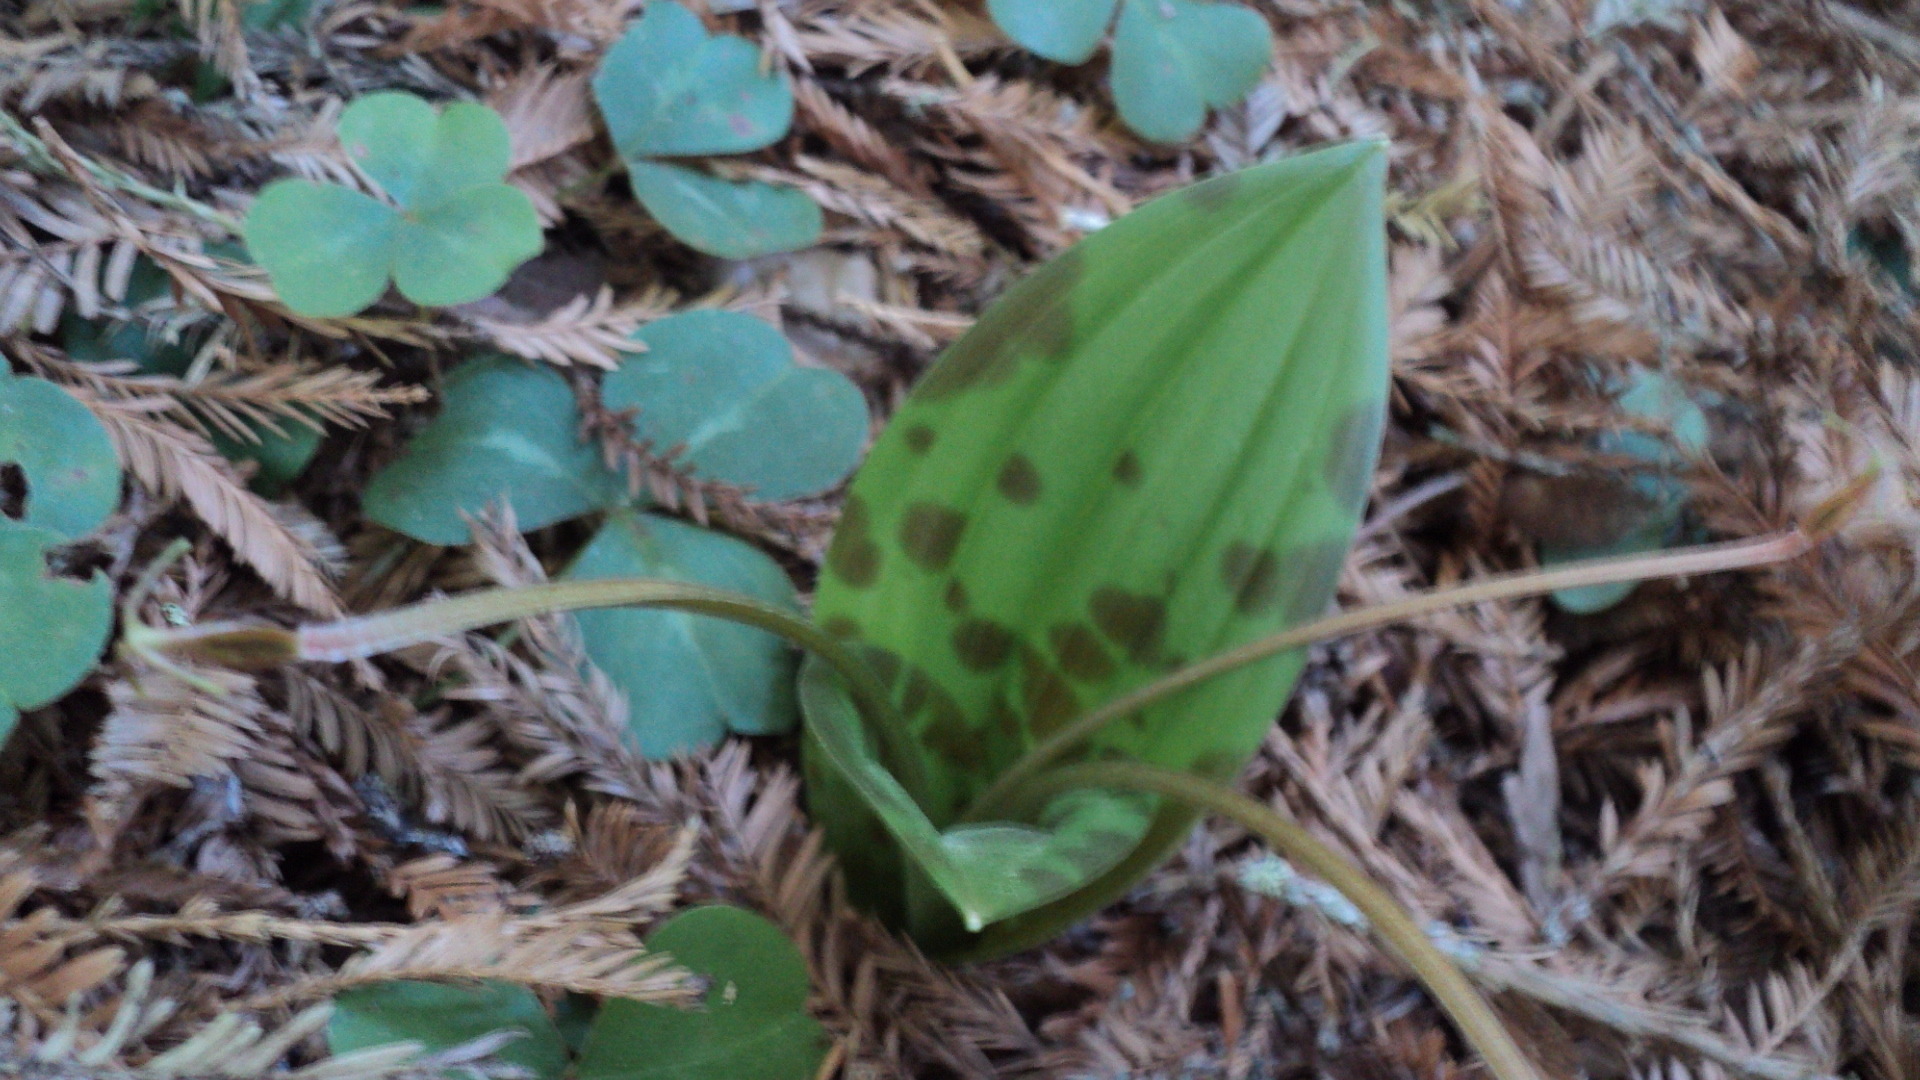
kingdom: Plantae
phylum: Tracheophyta
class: Liliopsida
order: Liliales
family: Liliaceae
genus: Scoliopus
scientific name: Scoliopus bigelovii
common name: Foetid adder's-tongue
